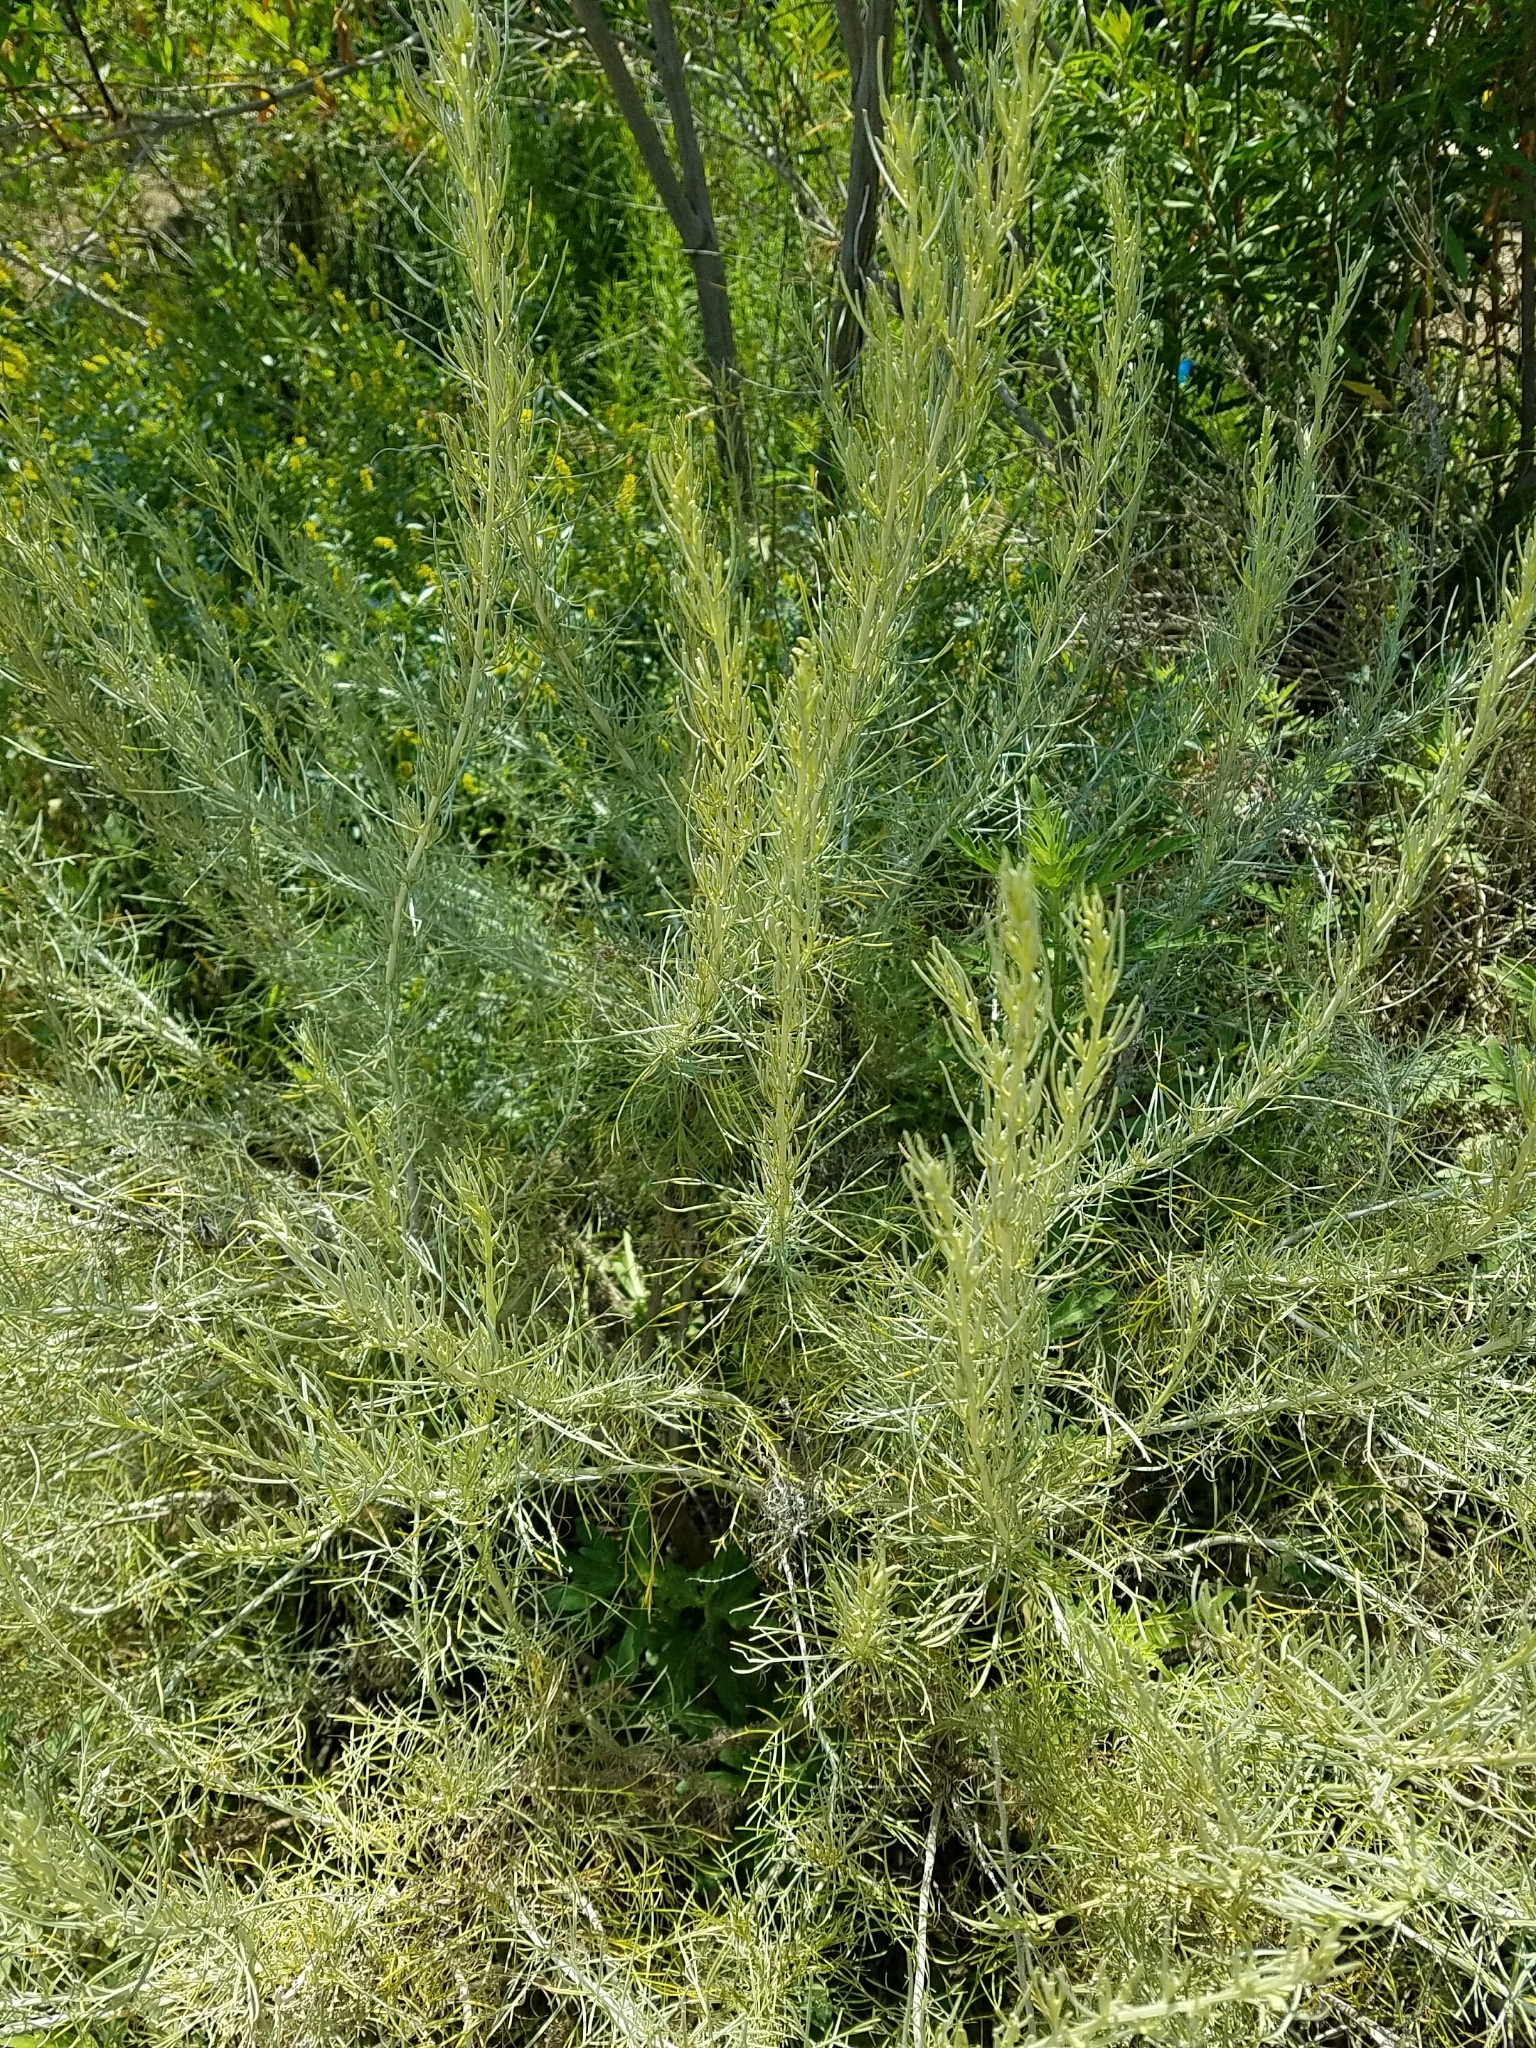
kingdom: Plantae
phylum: Tracheophyta
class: Magnoliopsida
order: Asterales
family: Asteraceae
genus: Artemisia
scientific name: Artemisia californica
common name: California sagebrush
